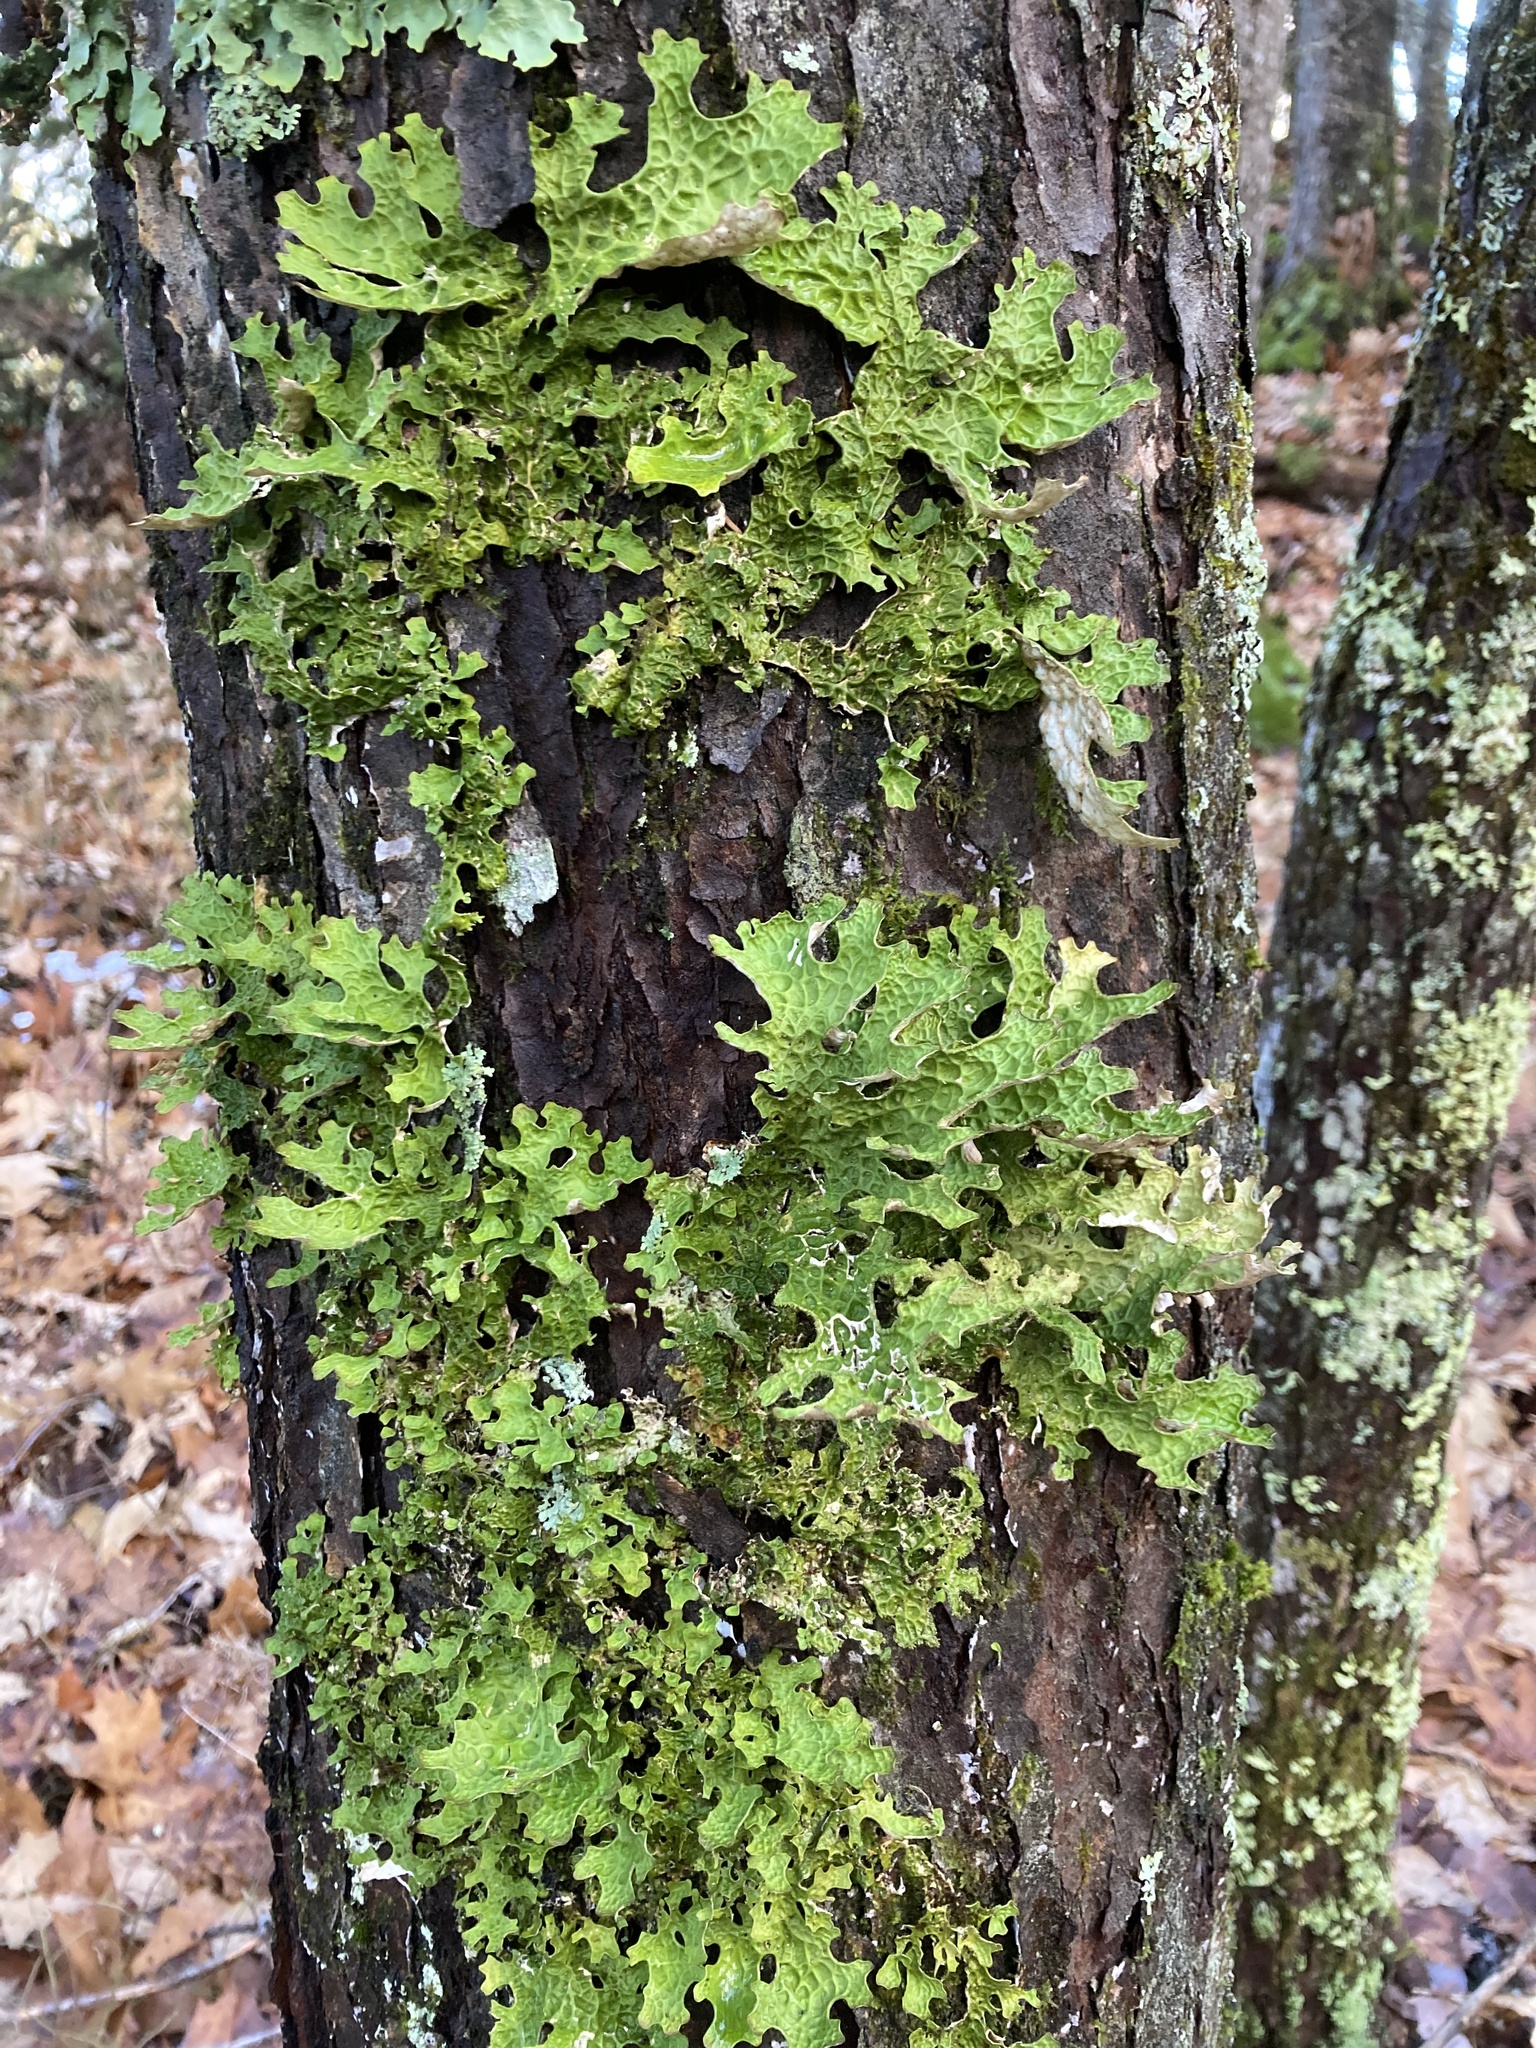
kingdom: Fungi
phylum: Ascomycota
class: Lecanoromycetes
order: Peltigerales
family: Lobariaceae
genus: Lobaria
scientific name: Lobaria pulmonaria
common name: Lungwort
